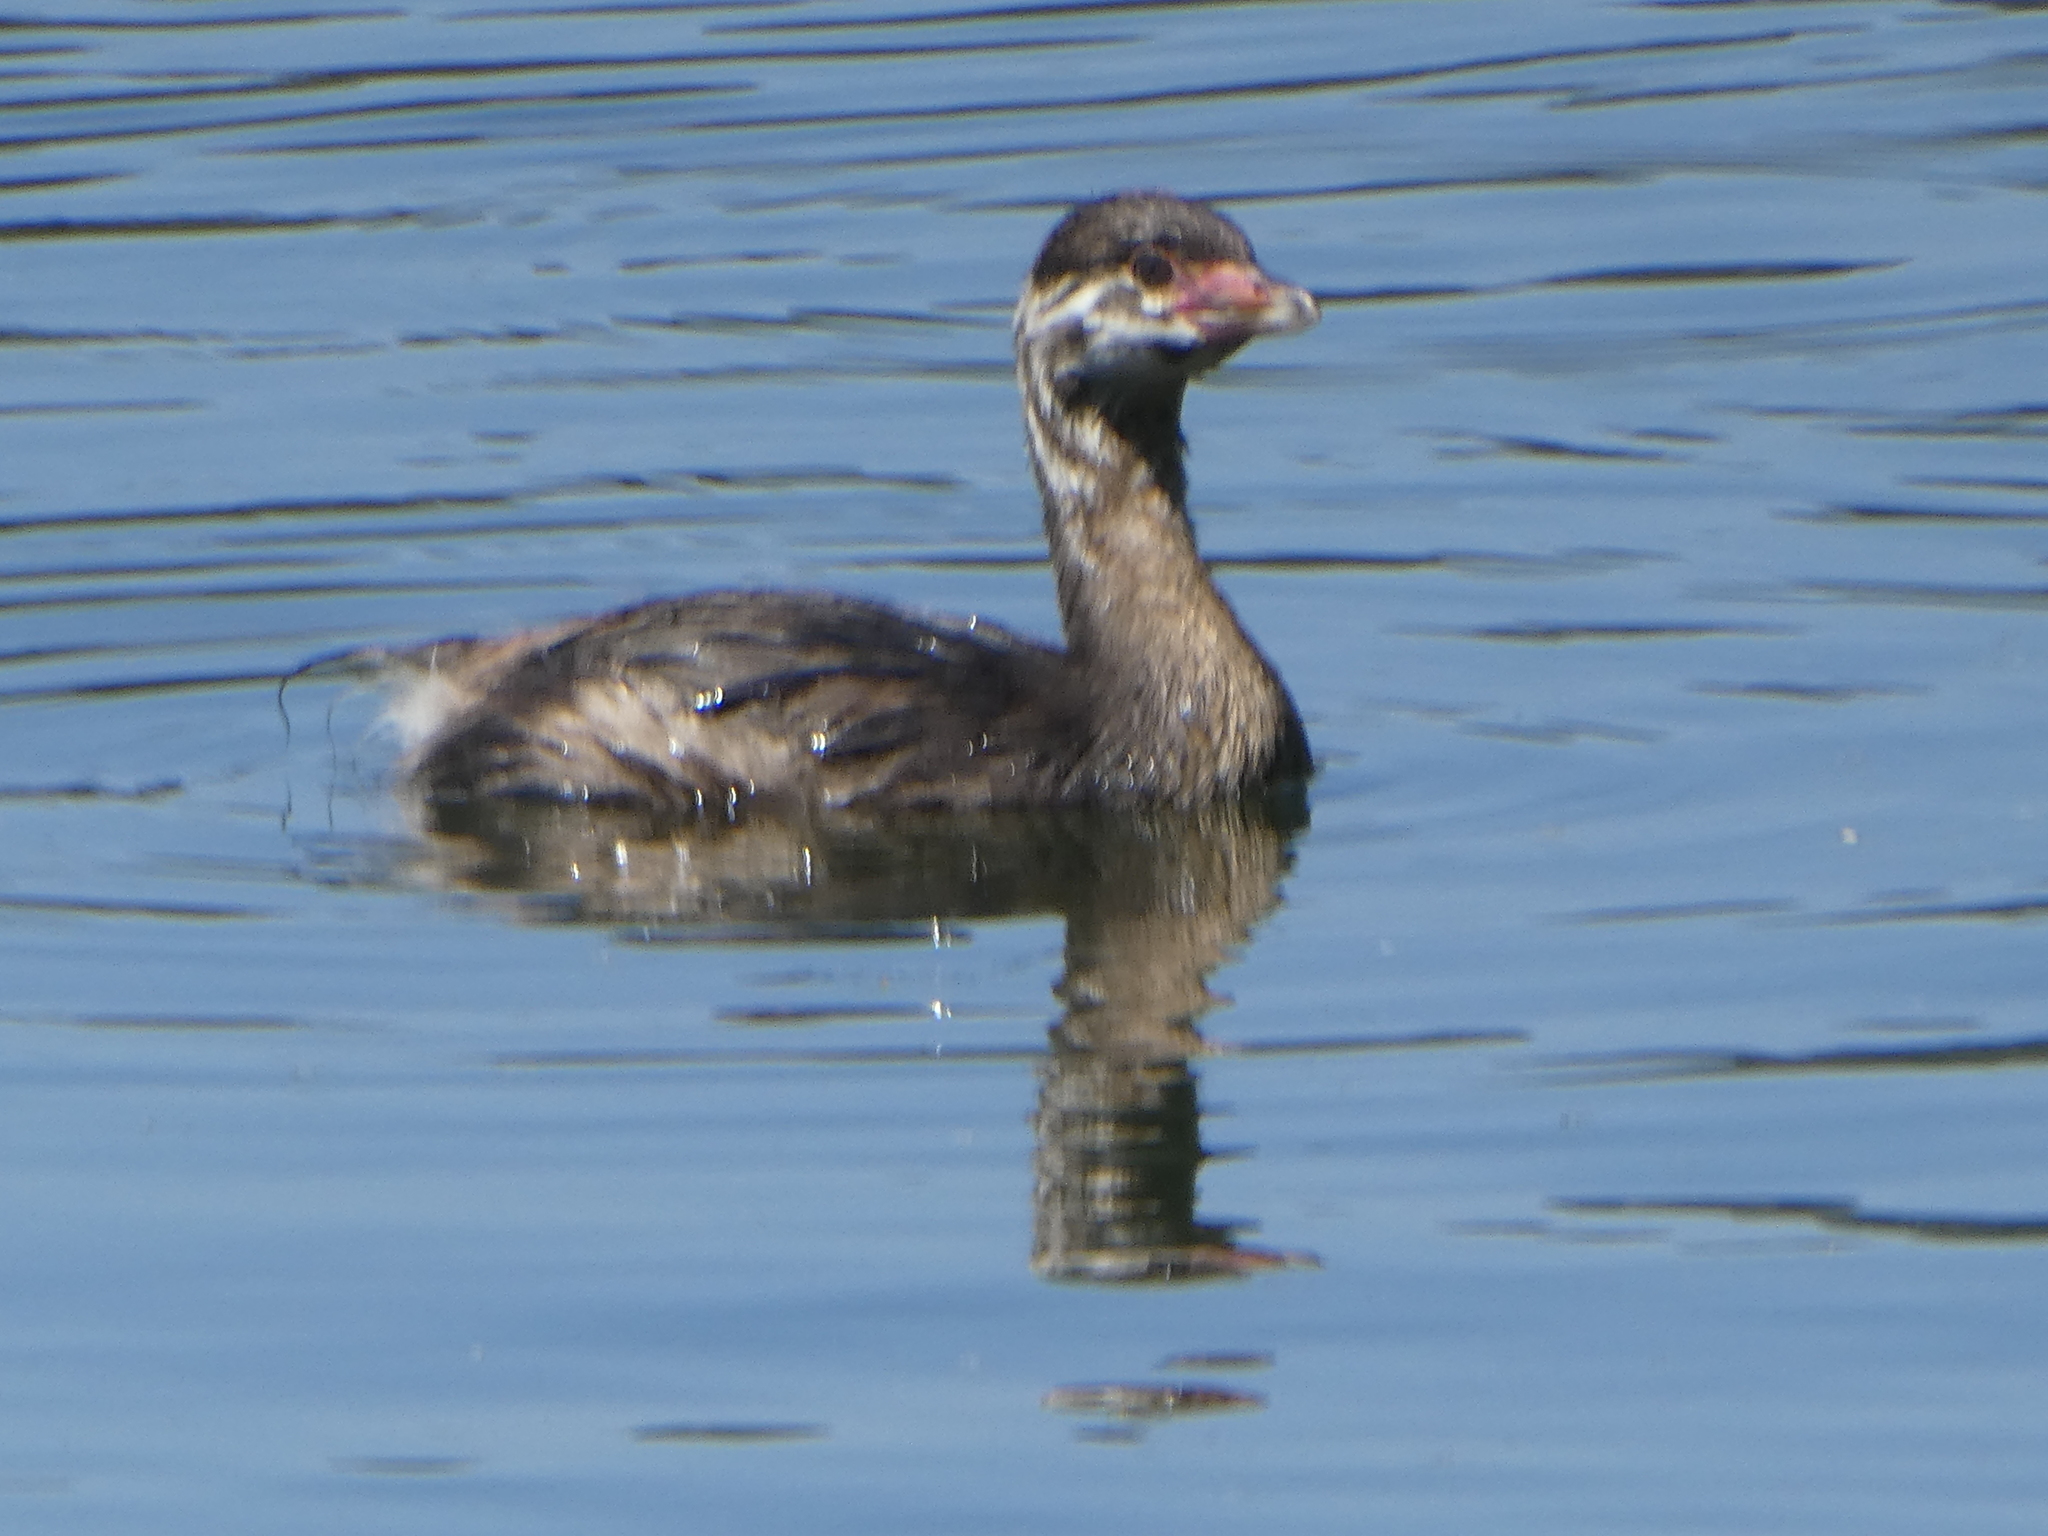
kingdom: Animalia
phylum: Chordata
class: Aves
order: Podicipediformes
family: Podicipedidae
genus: Podilymbus
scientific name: Podilymbus podiceps
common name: Pied-billed grebe
